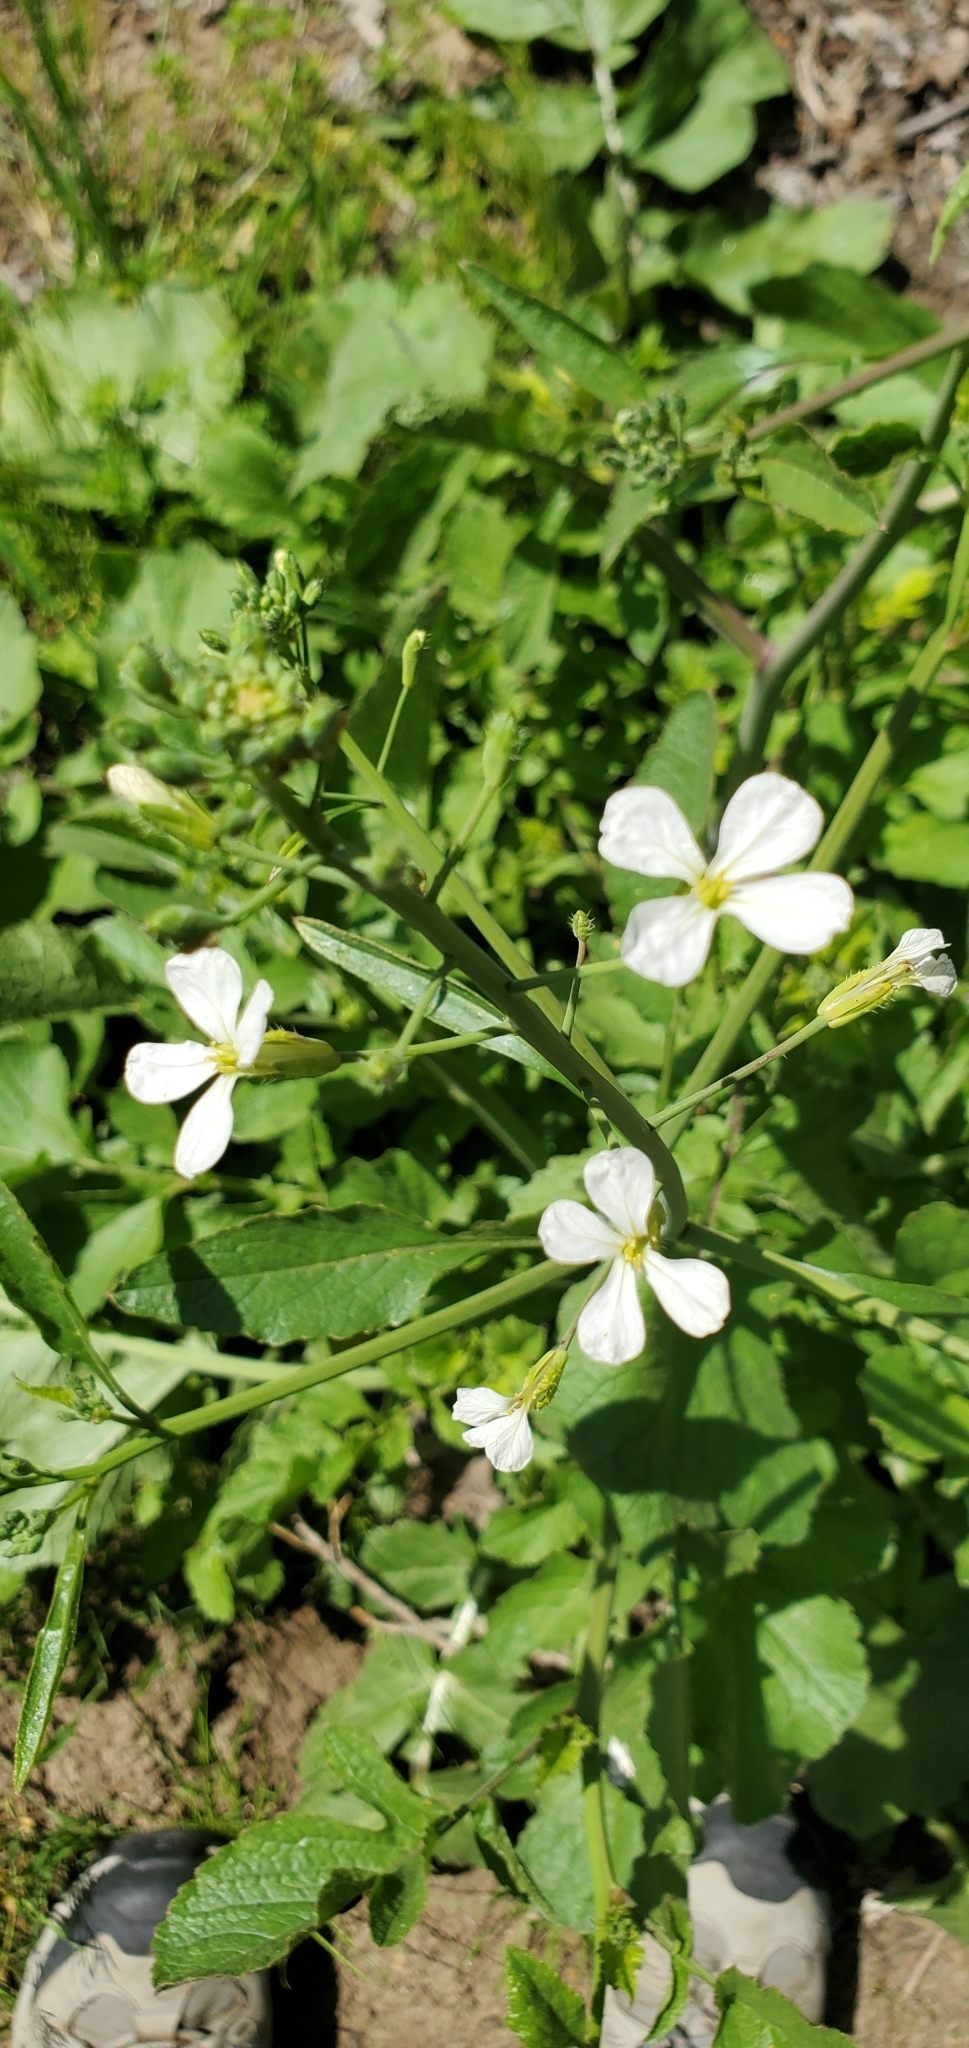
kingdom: Plantae
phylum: Tracheophyta
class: Magnoliopsida
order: Brassicales
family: Brassicaceae
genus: Raphanus
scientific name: Raphanus sativus
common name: Cultivated radish
